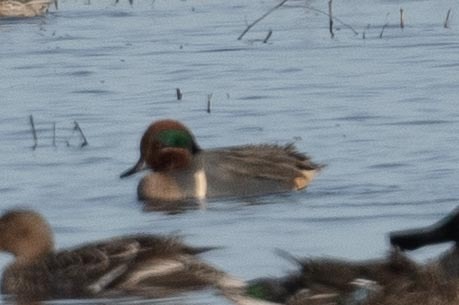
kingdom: Animalia
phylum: Chordata
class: Aves
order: Anseriformes
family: Anatidae
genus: Anas
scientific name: Anas crecca
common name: Eurasian teal
